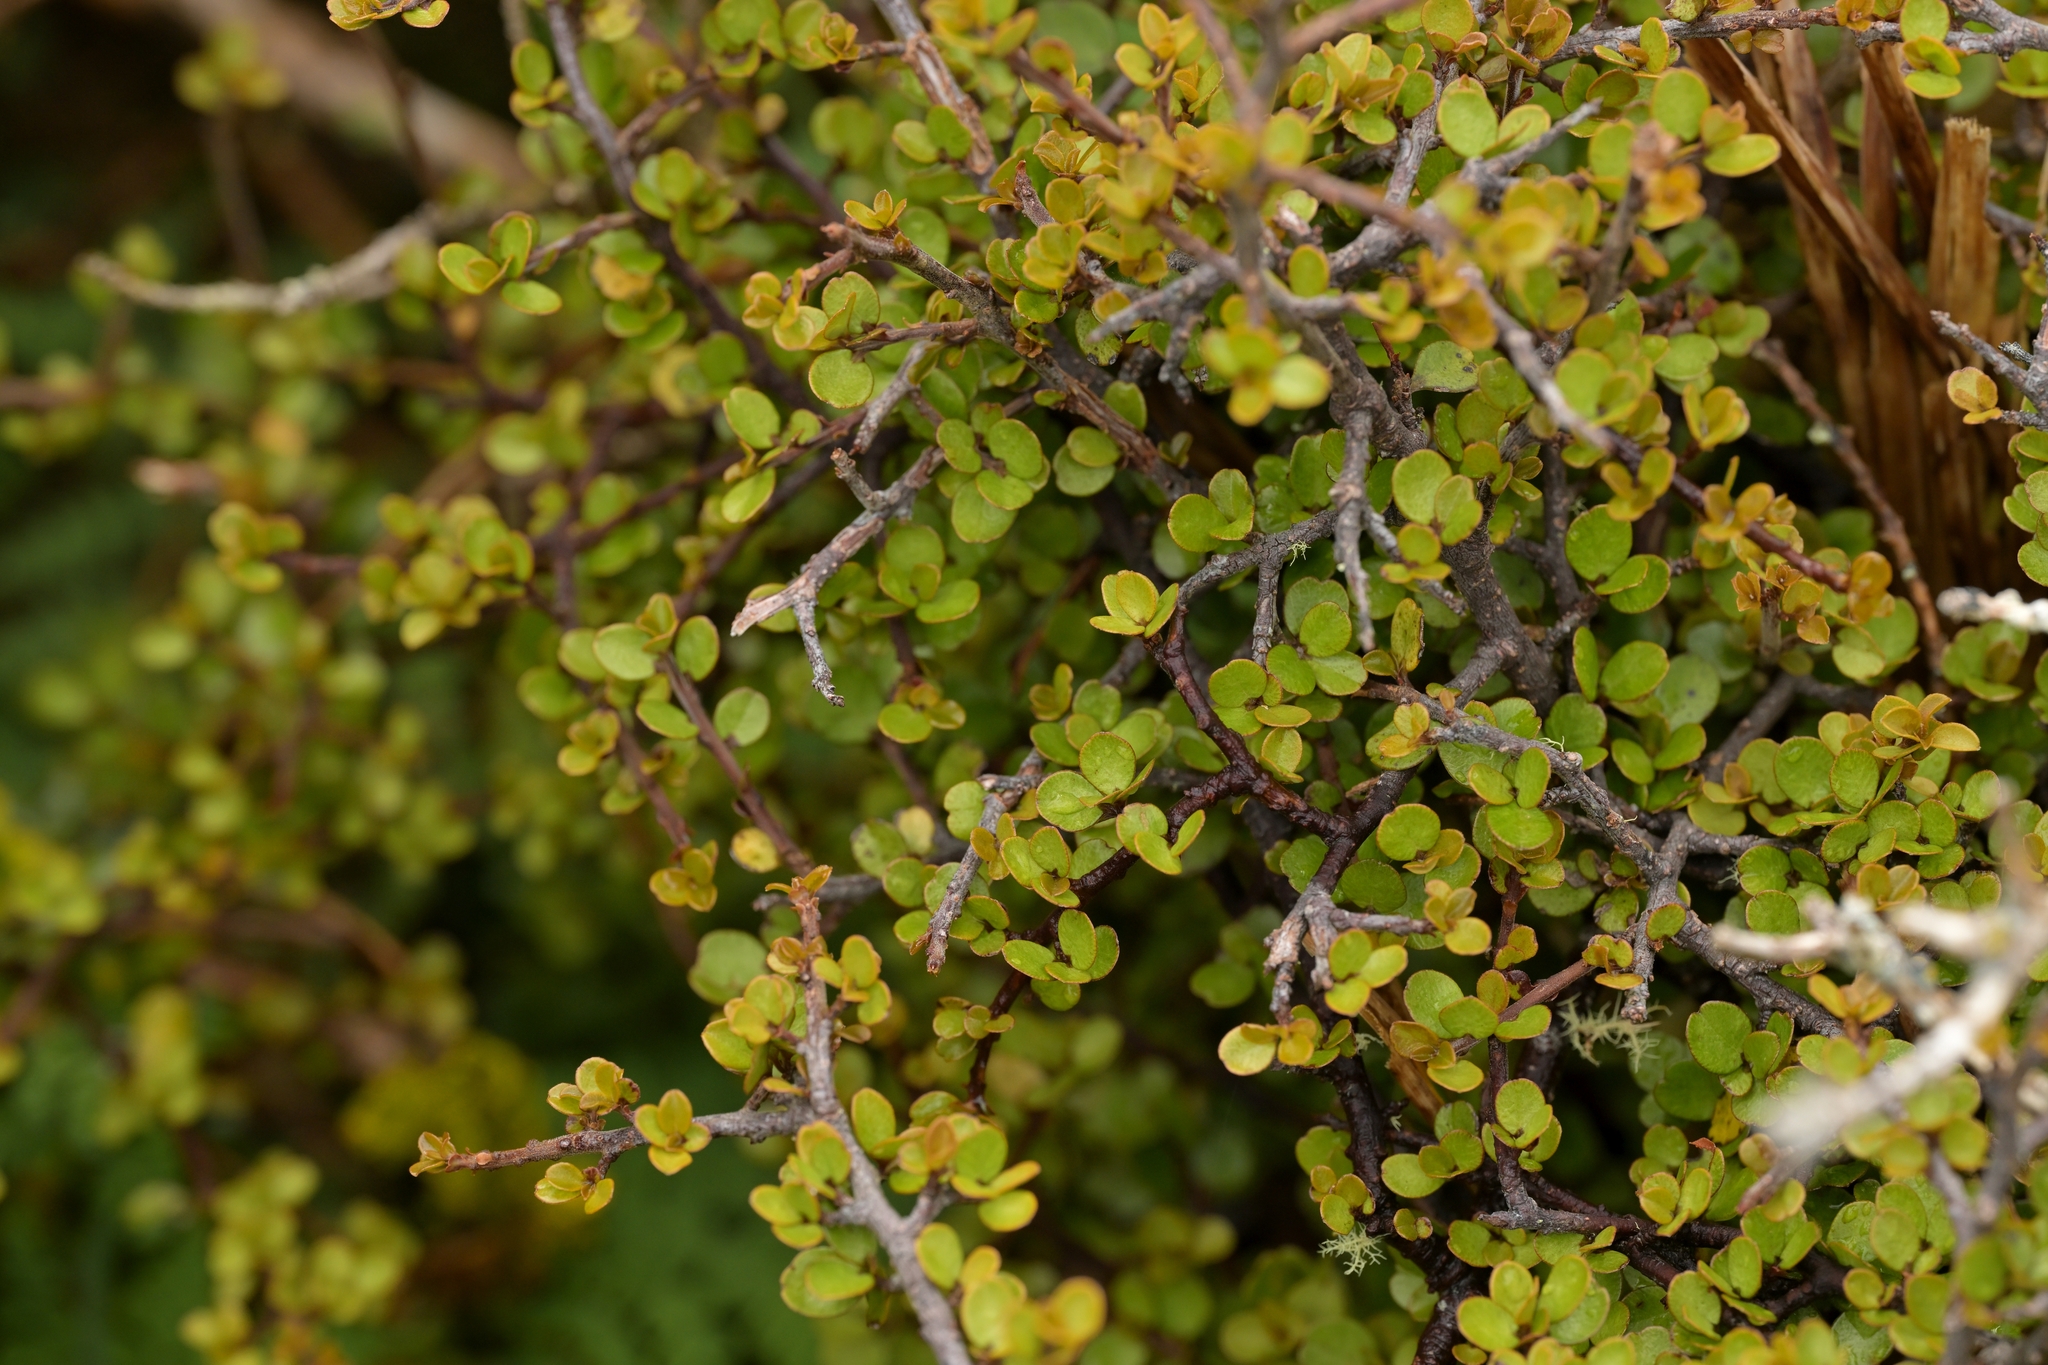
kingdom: Plantae
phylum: Tracheophyta
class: Magnoliopsida
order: Ericales
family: Primulaceae
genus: Myrsine
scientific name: Myrsine divaricata
